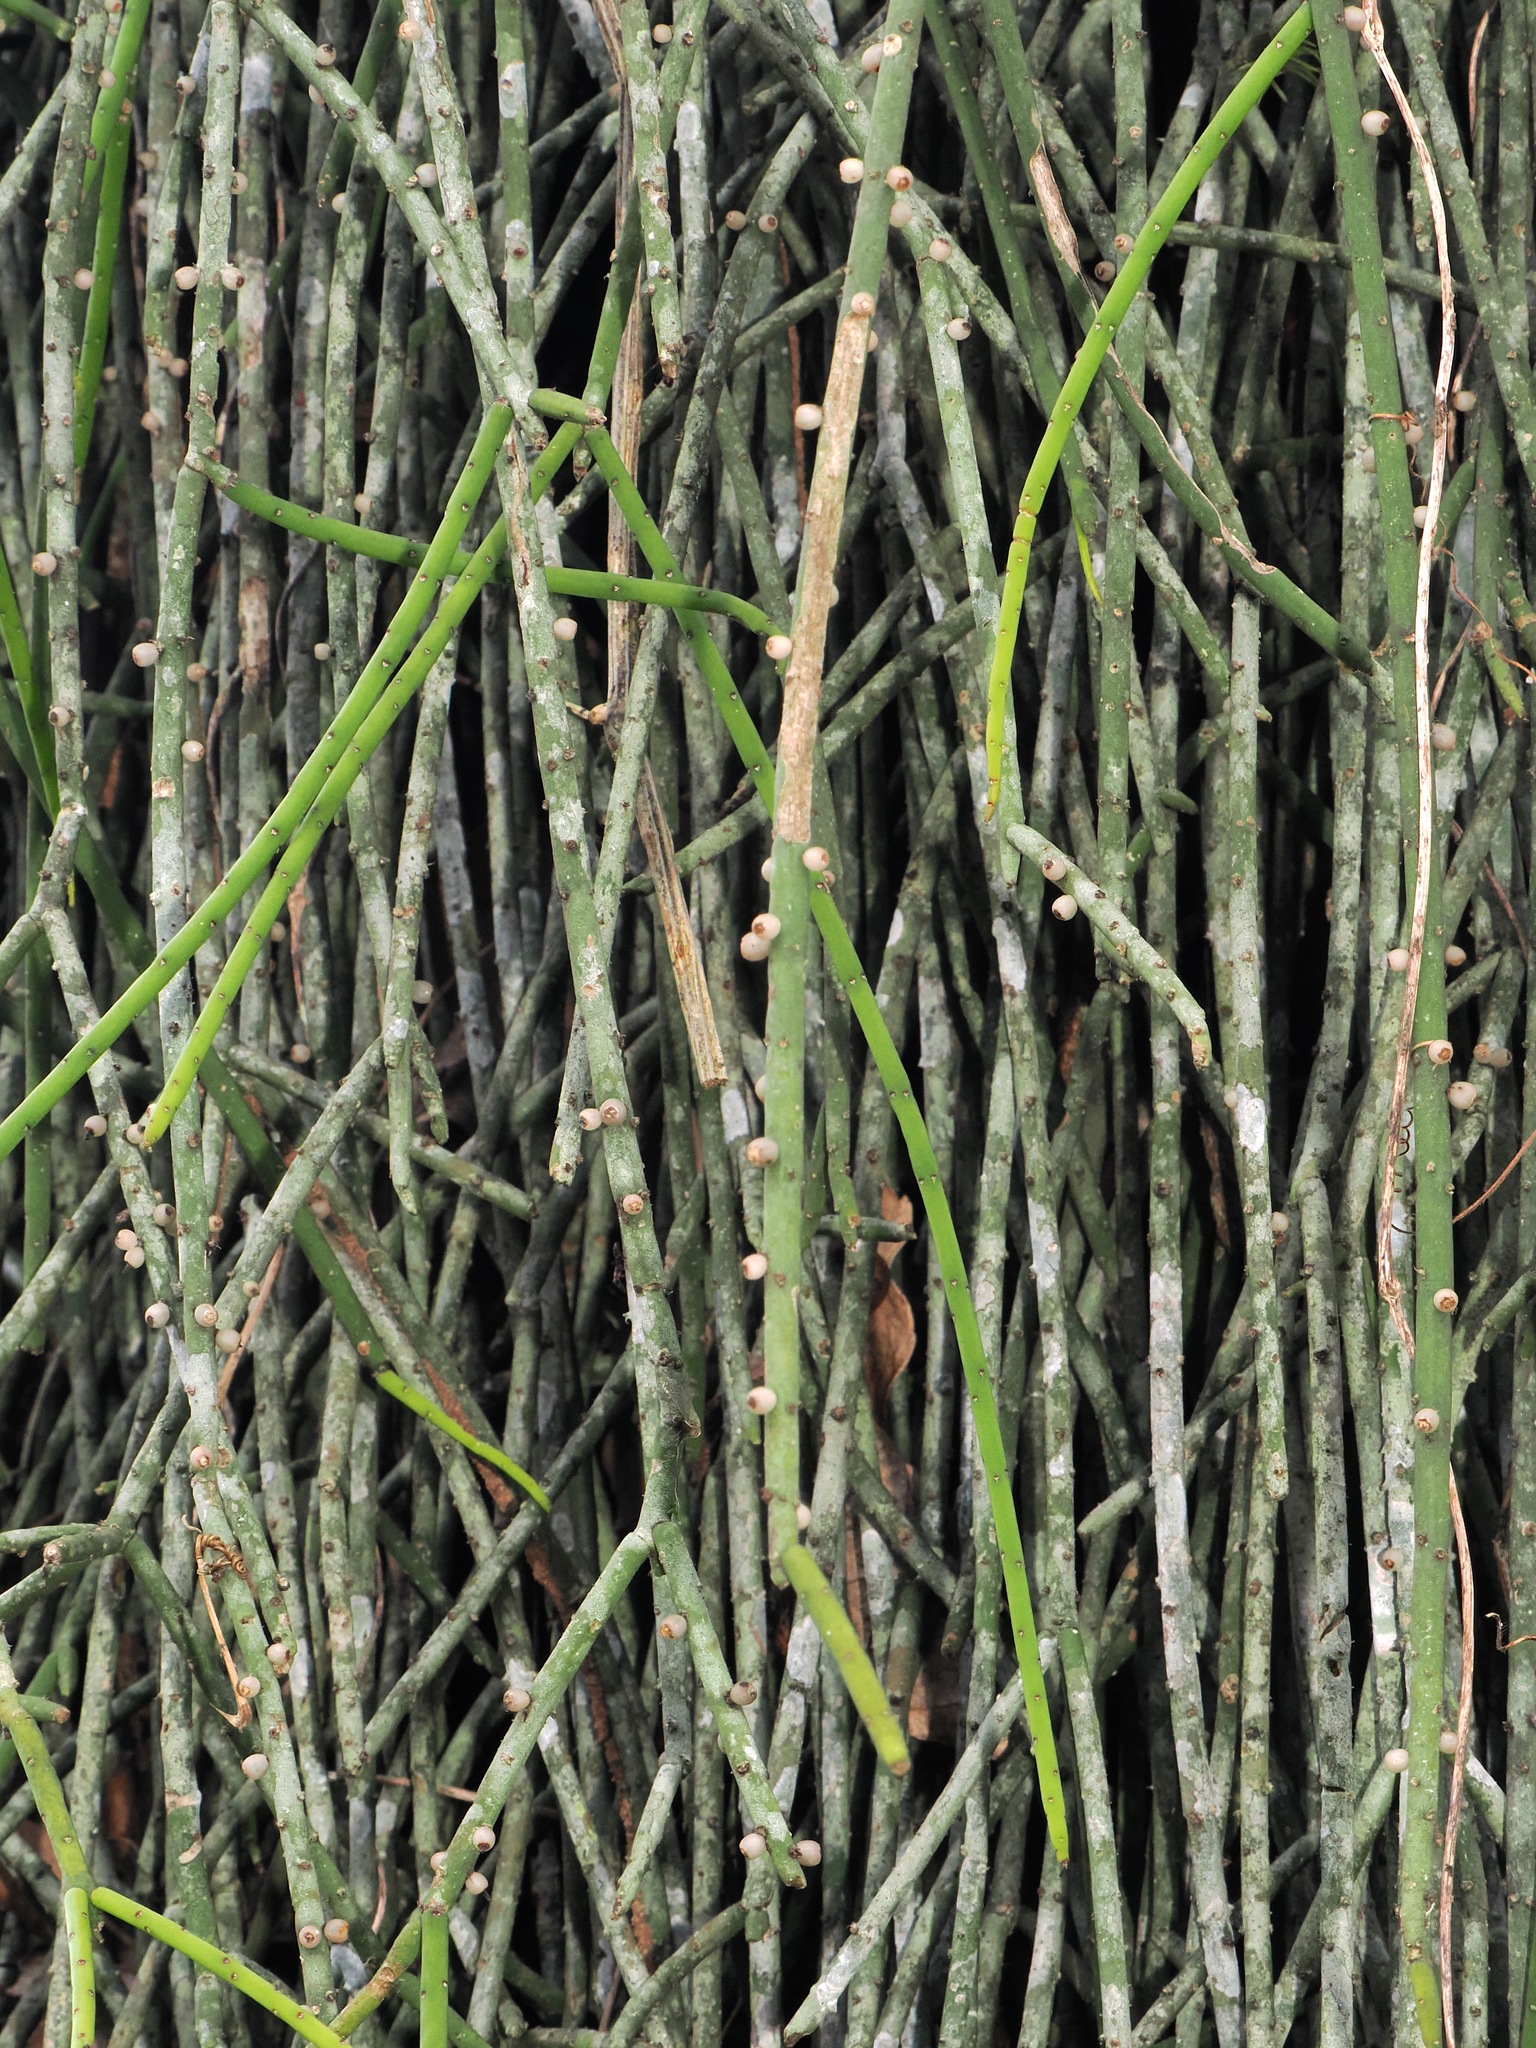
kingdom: Plantae
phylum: Tracheophyta
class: Magnoliopsida
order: Caryophyllales
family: Cactaceae
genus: Rhipsalis
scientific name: Rhipsalis lindbergiana
